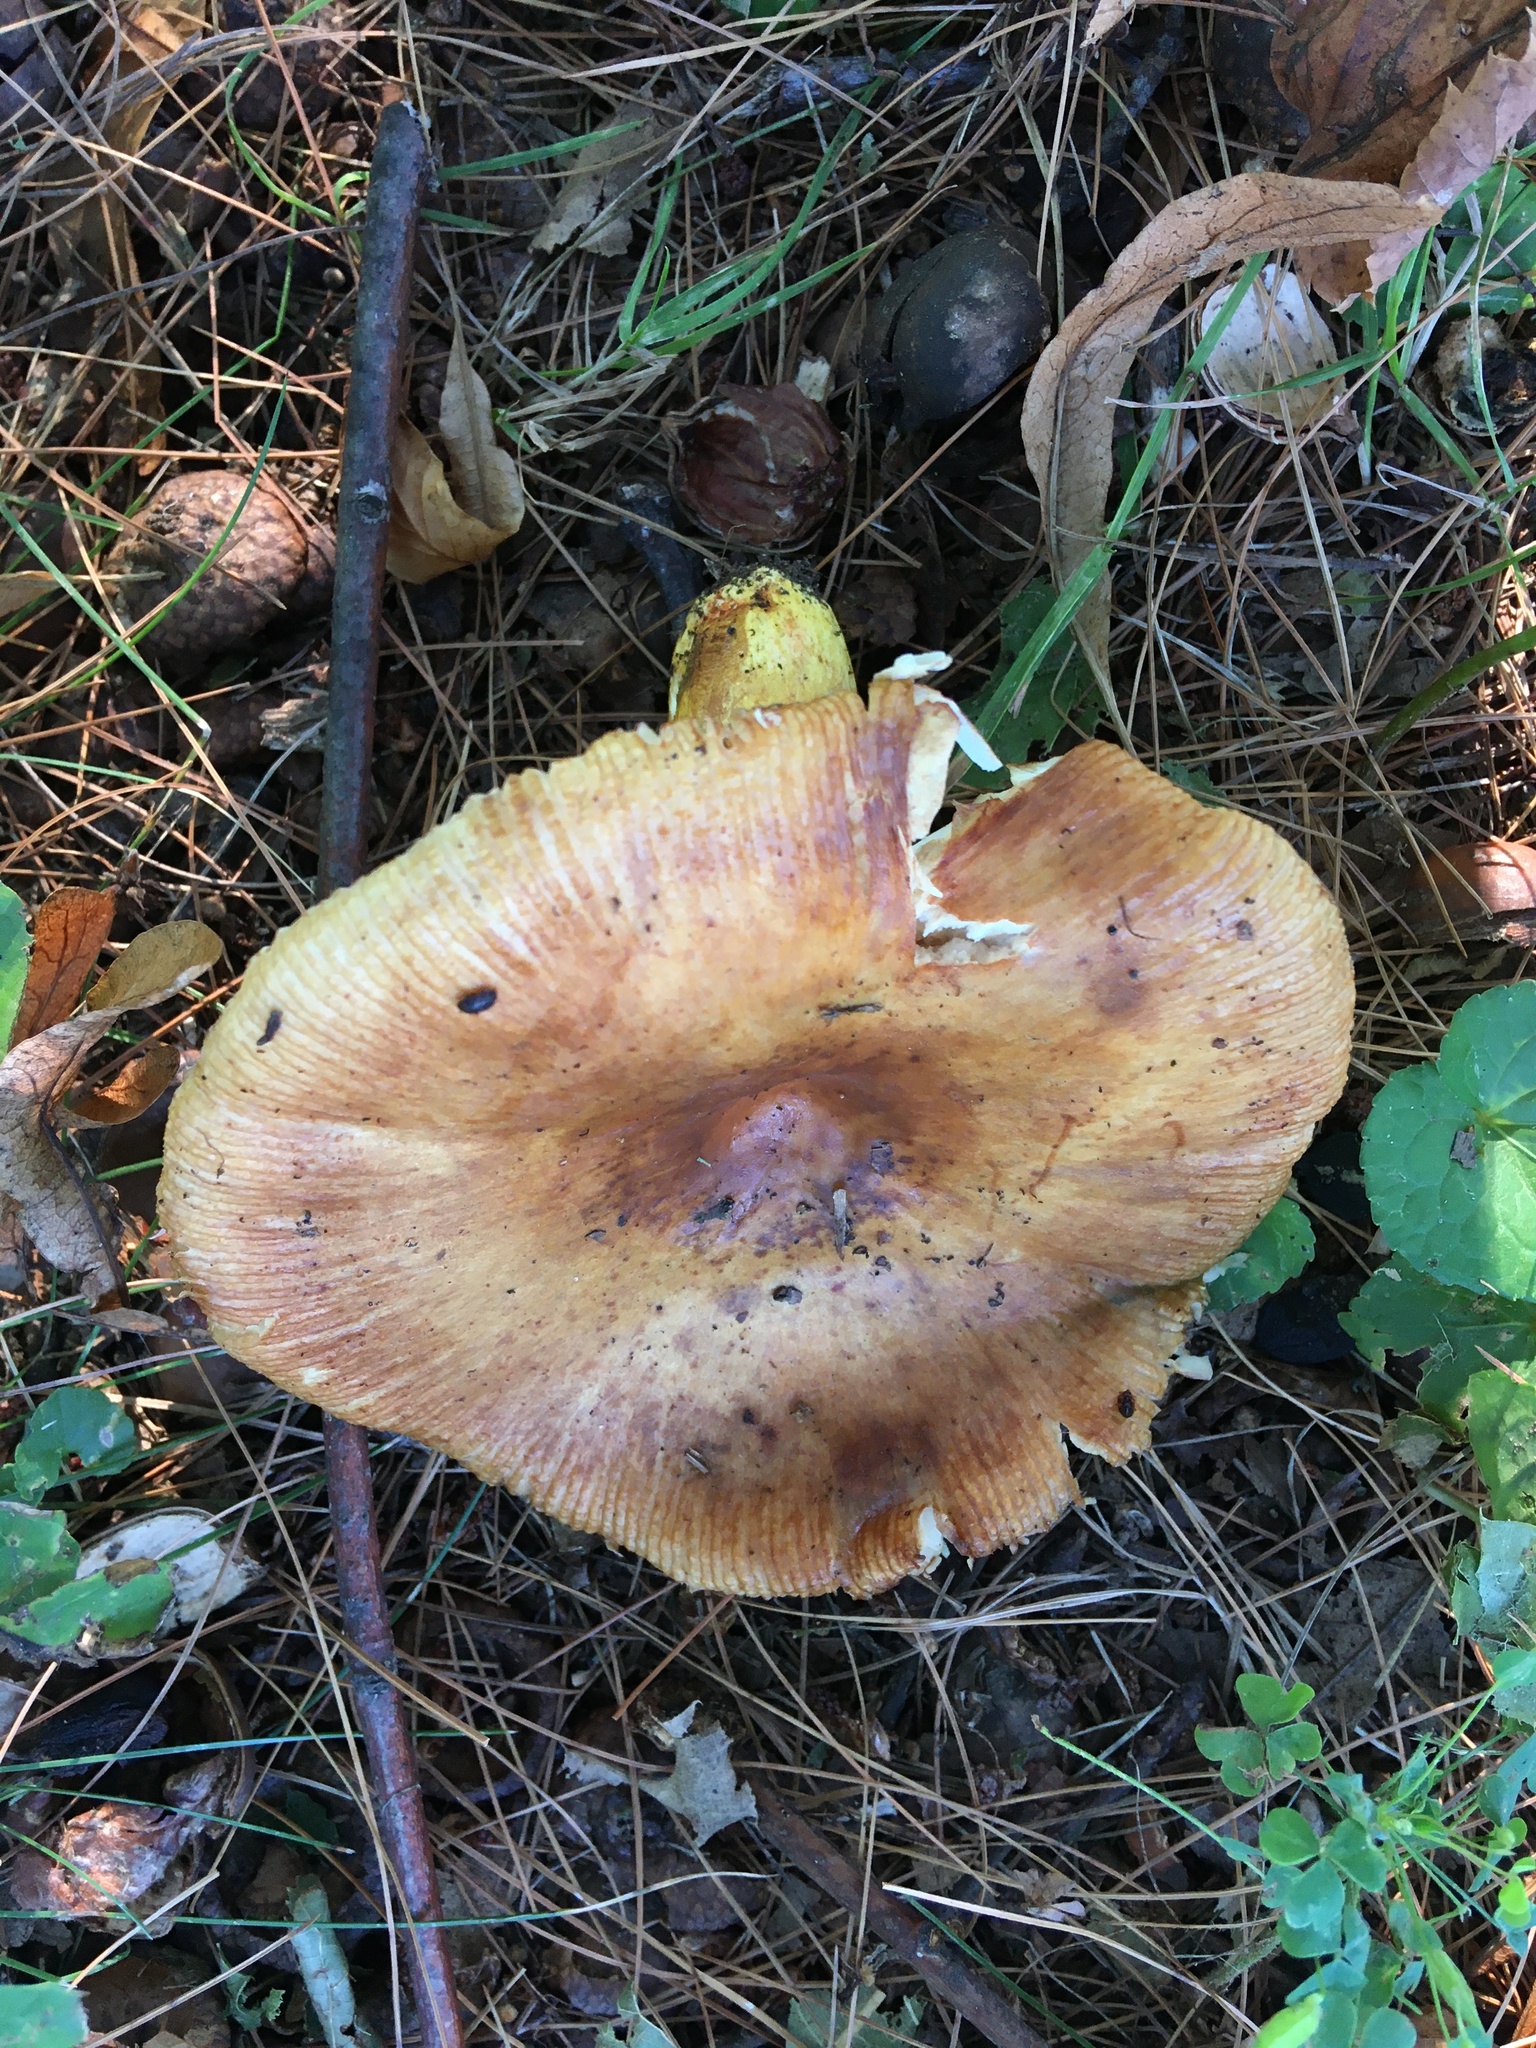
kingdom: Fungi
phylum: Basidiomycota
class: Agaricomycetes
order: Russulales
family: Russulaceae
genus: Russula
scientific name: Russula mutabilis
